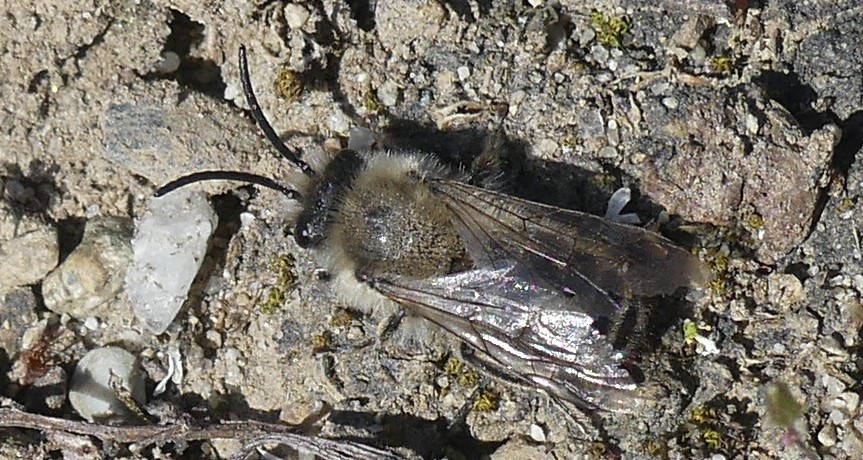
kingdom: Animalia
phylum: Arthropoda
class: Insecta
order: Hymenoptera
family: Colletidae
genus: Colletes
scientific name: Colletes cunicularius
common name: Early colletes
